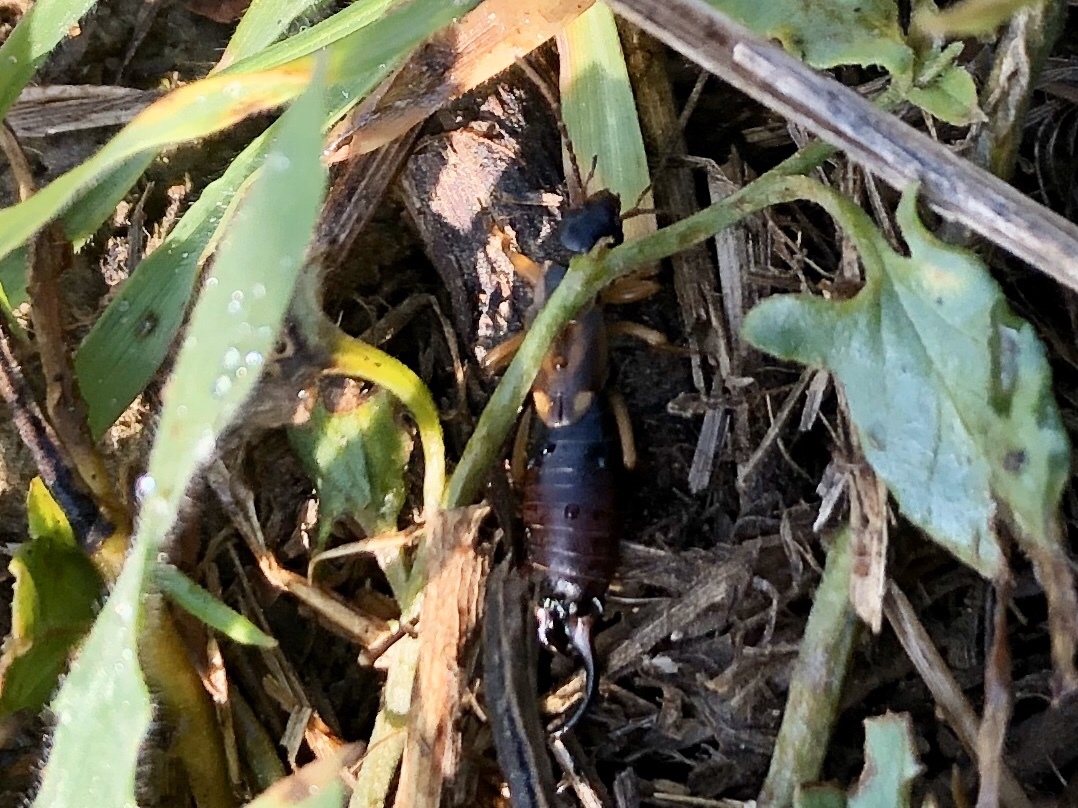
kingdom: Animalia
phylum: Arthropoda
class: Insecta
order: Dermaptera
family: Forficulidae
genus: Forficula
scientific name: Forficula
